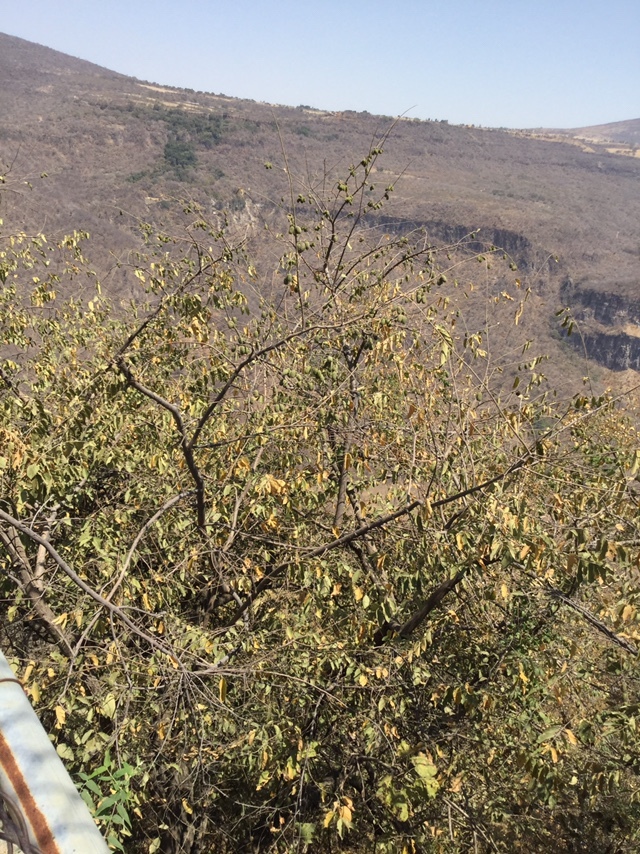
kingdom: Plantae
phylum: Tracheophyta
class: Magnoliopsida
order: Malvales
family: Malvaceae
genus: Guazuma
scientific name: Guazuma ulmifolia
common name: Bastard-cedar
